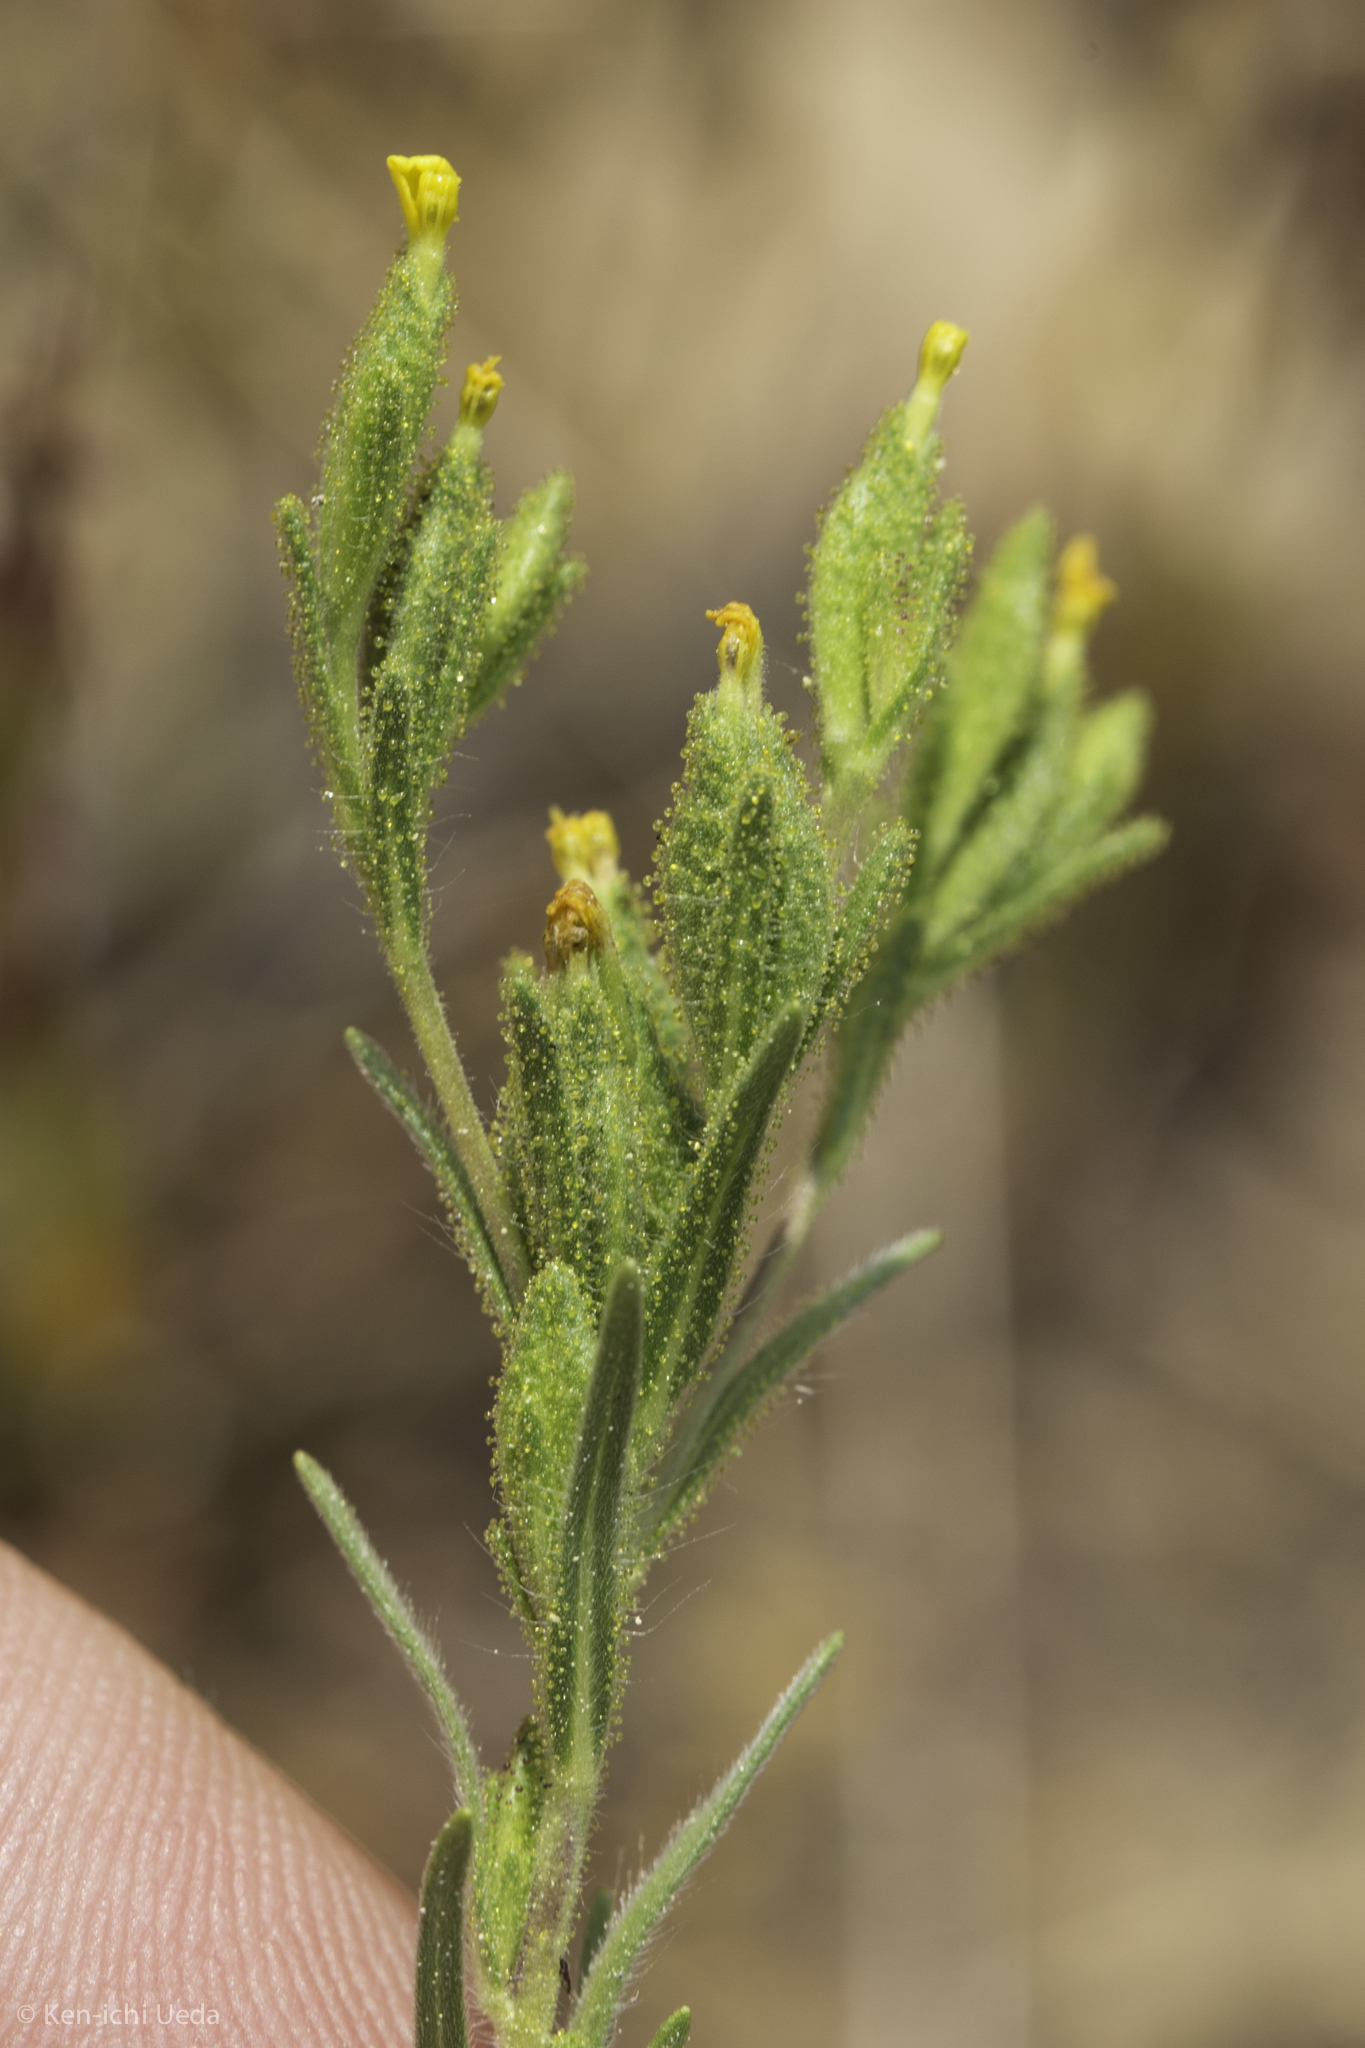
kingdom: Plantae
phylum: Tracheophyta
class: Magnoliopsida
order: Asterales
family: Asteraceae
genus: Madia
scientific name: Madia glomerata
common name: Mountain tarweed
